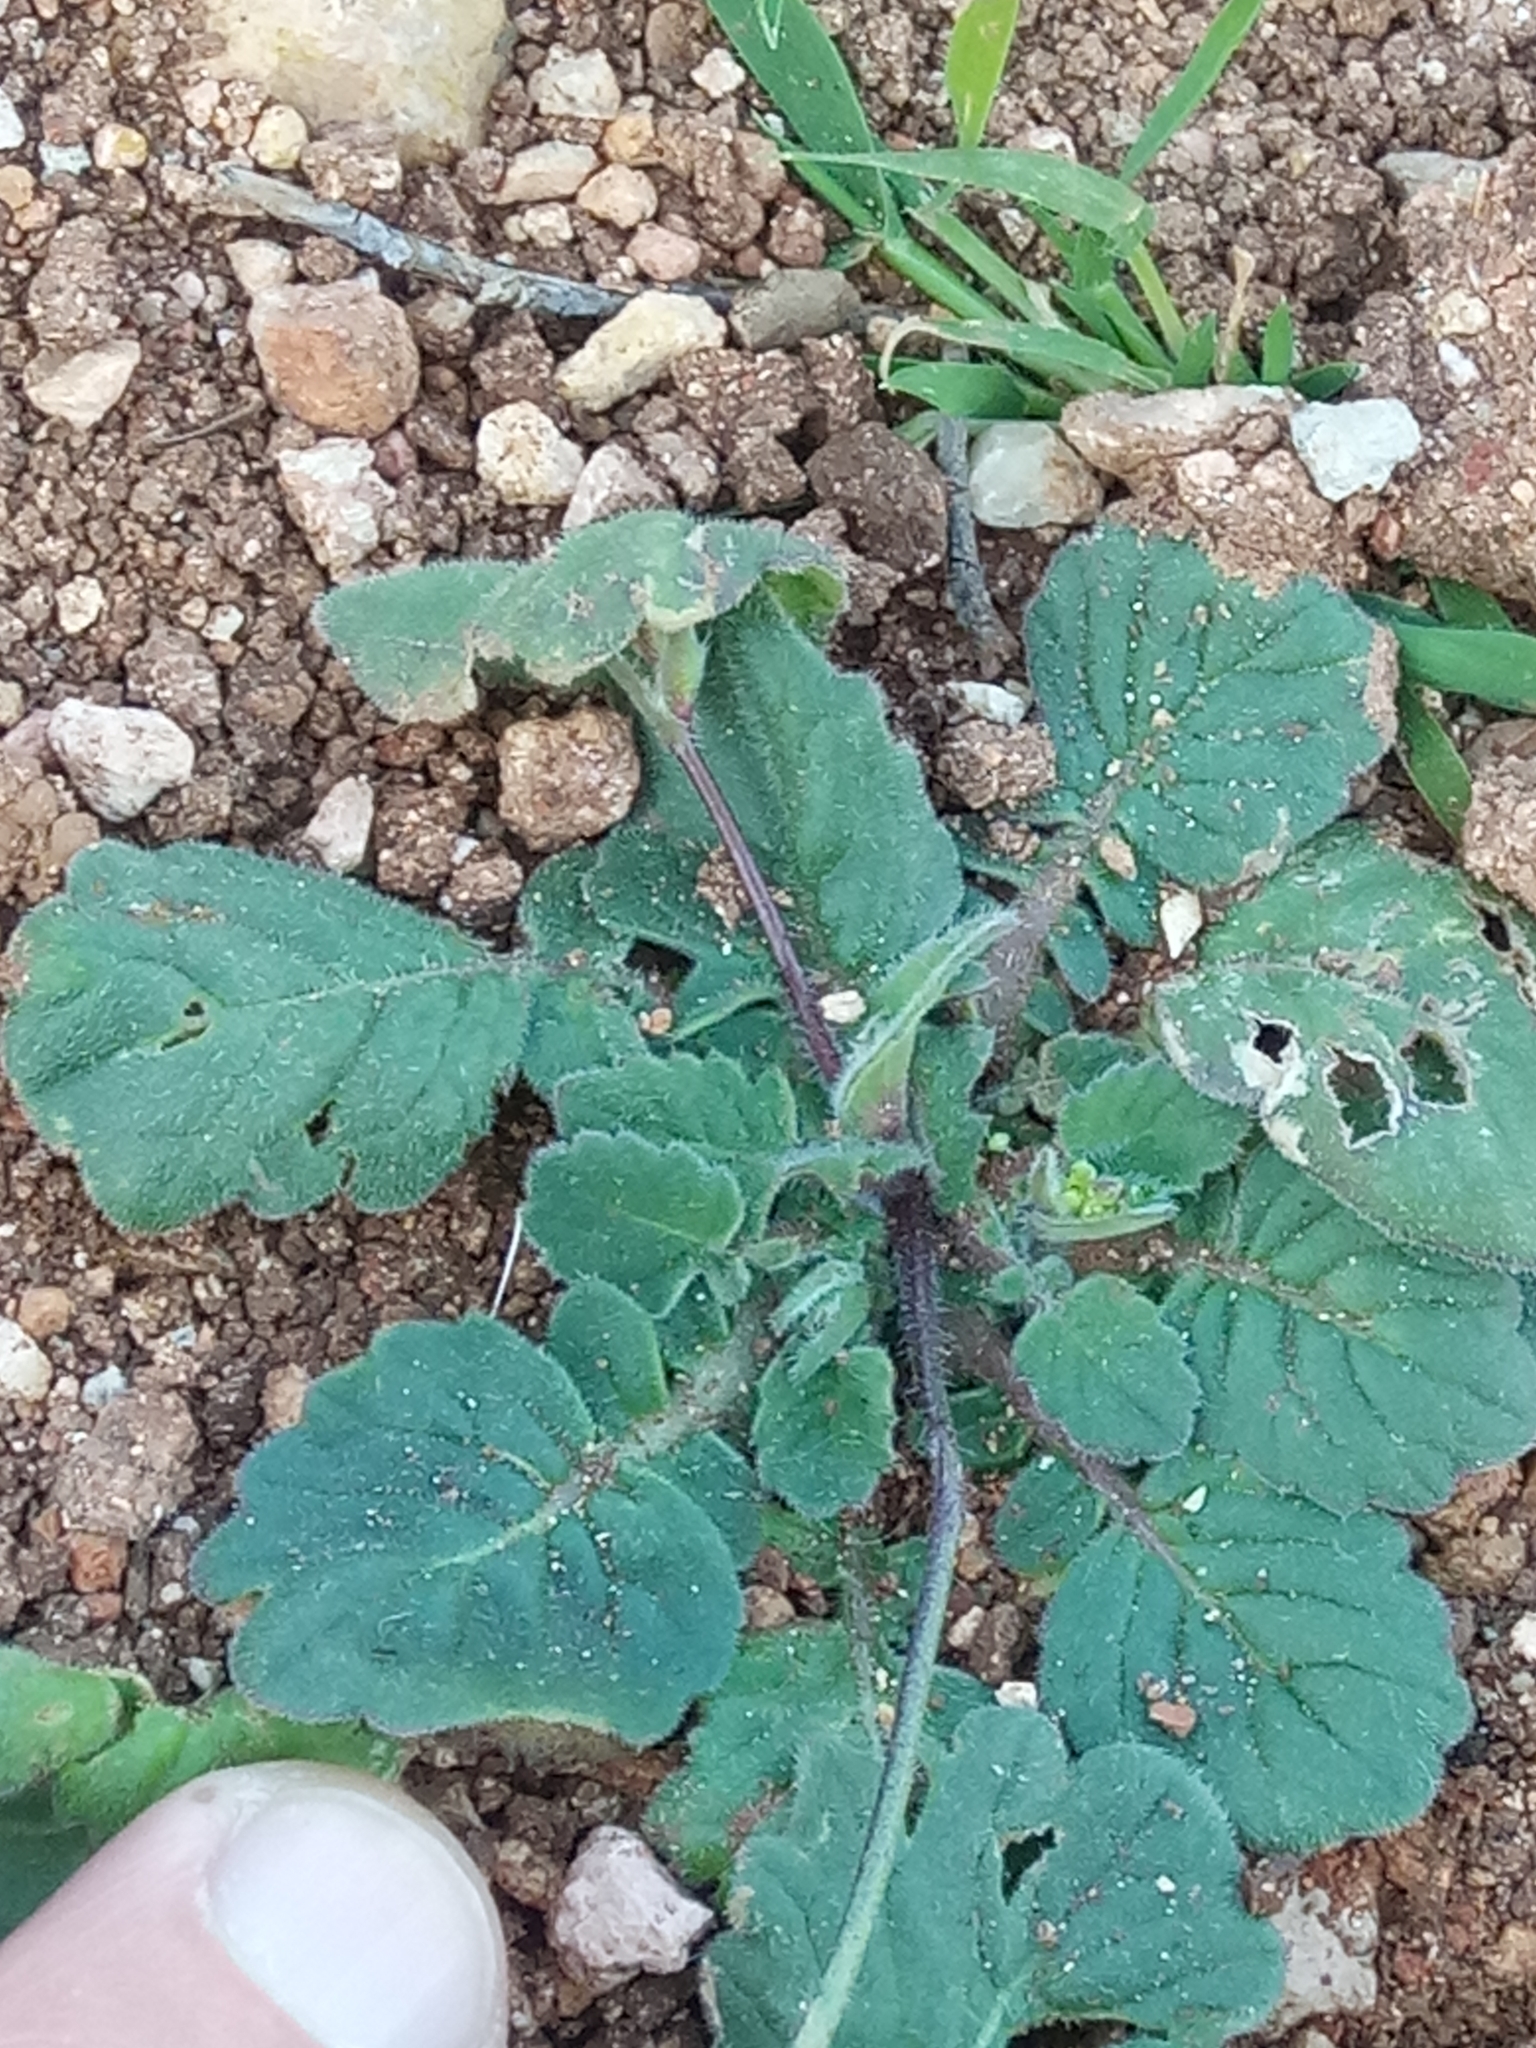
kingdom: Plantae
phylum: Tracheophyta
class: Magnoliopsida
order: Brassicales
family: Brassicaceae
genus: Biscutella
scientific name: Biscutella raphanifolia
